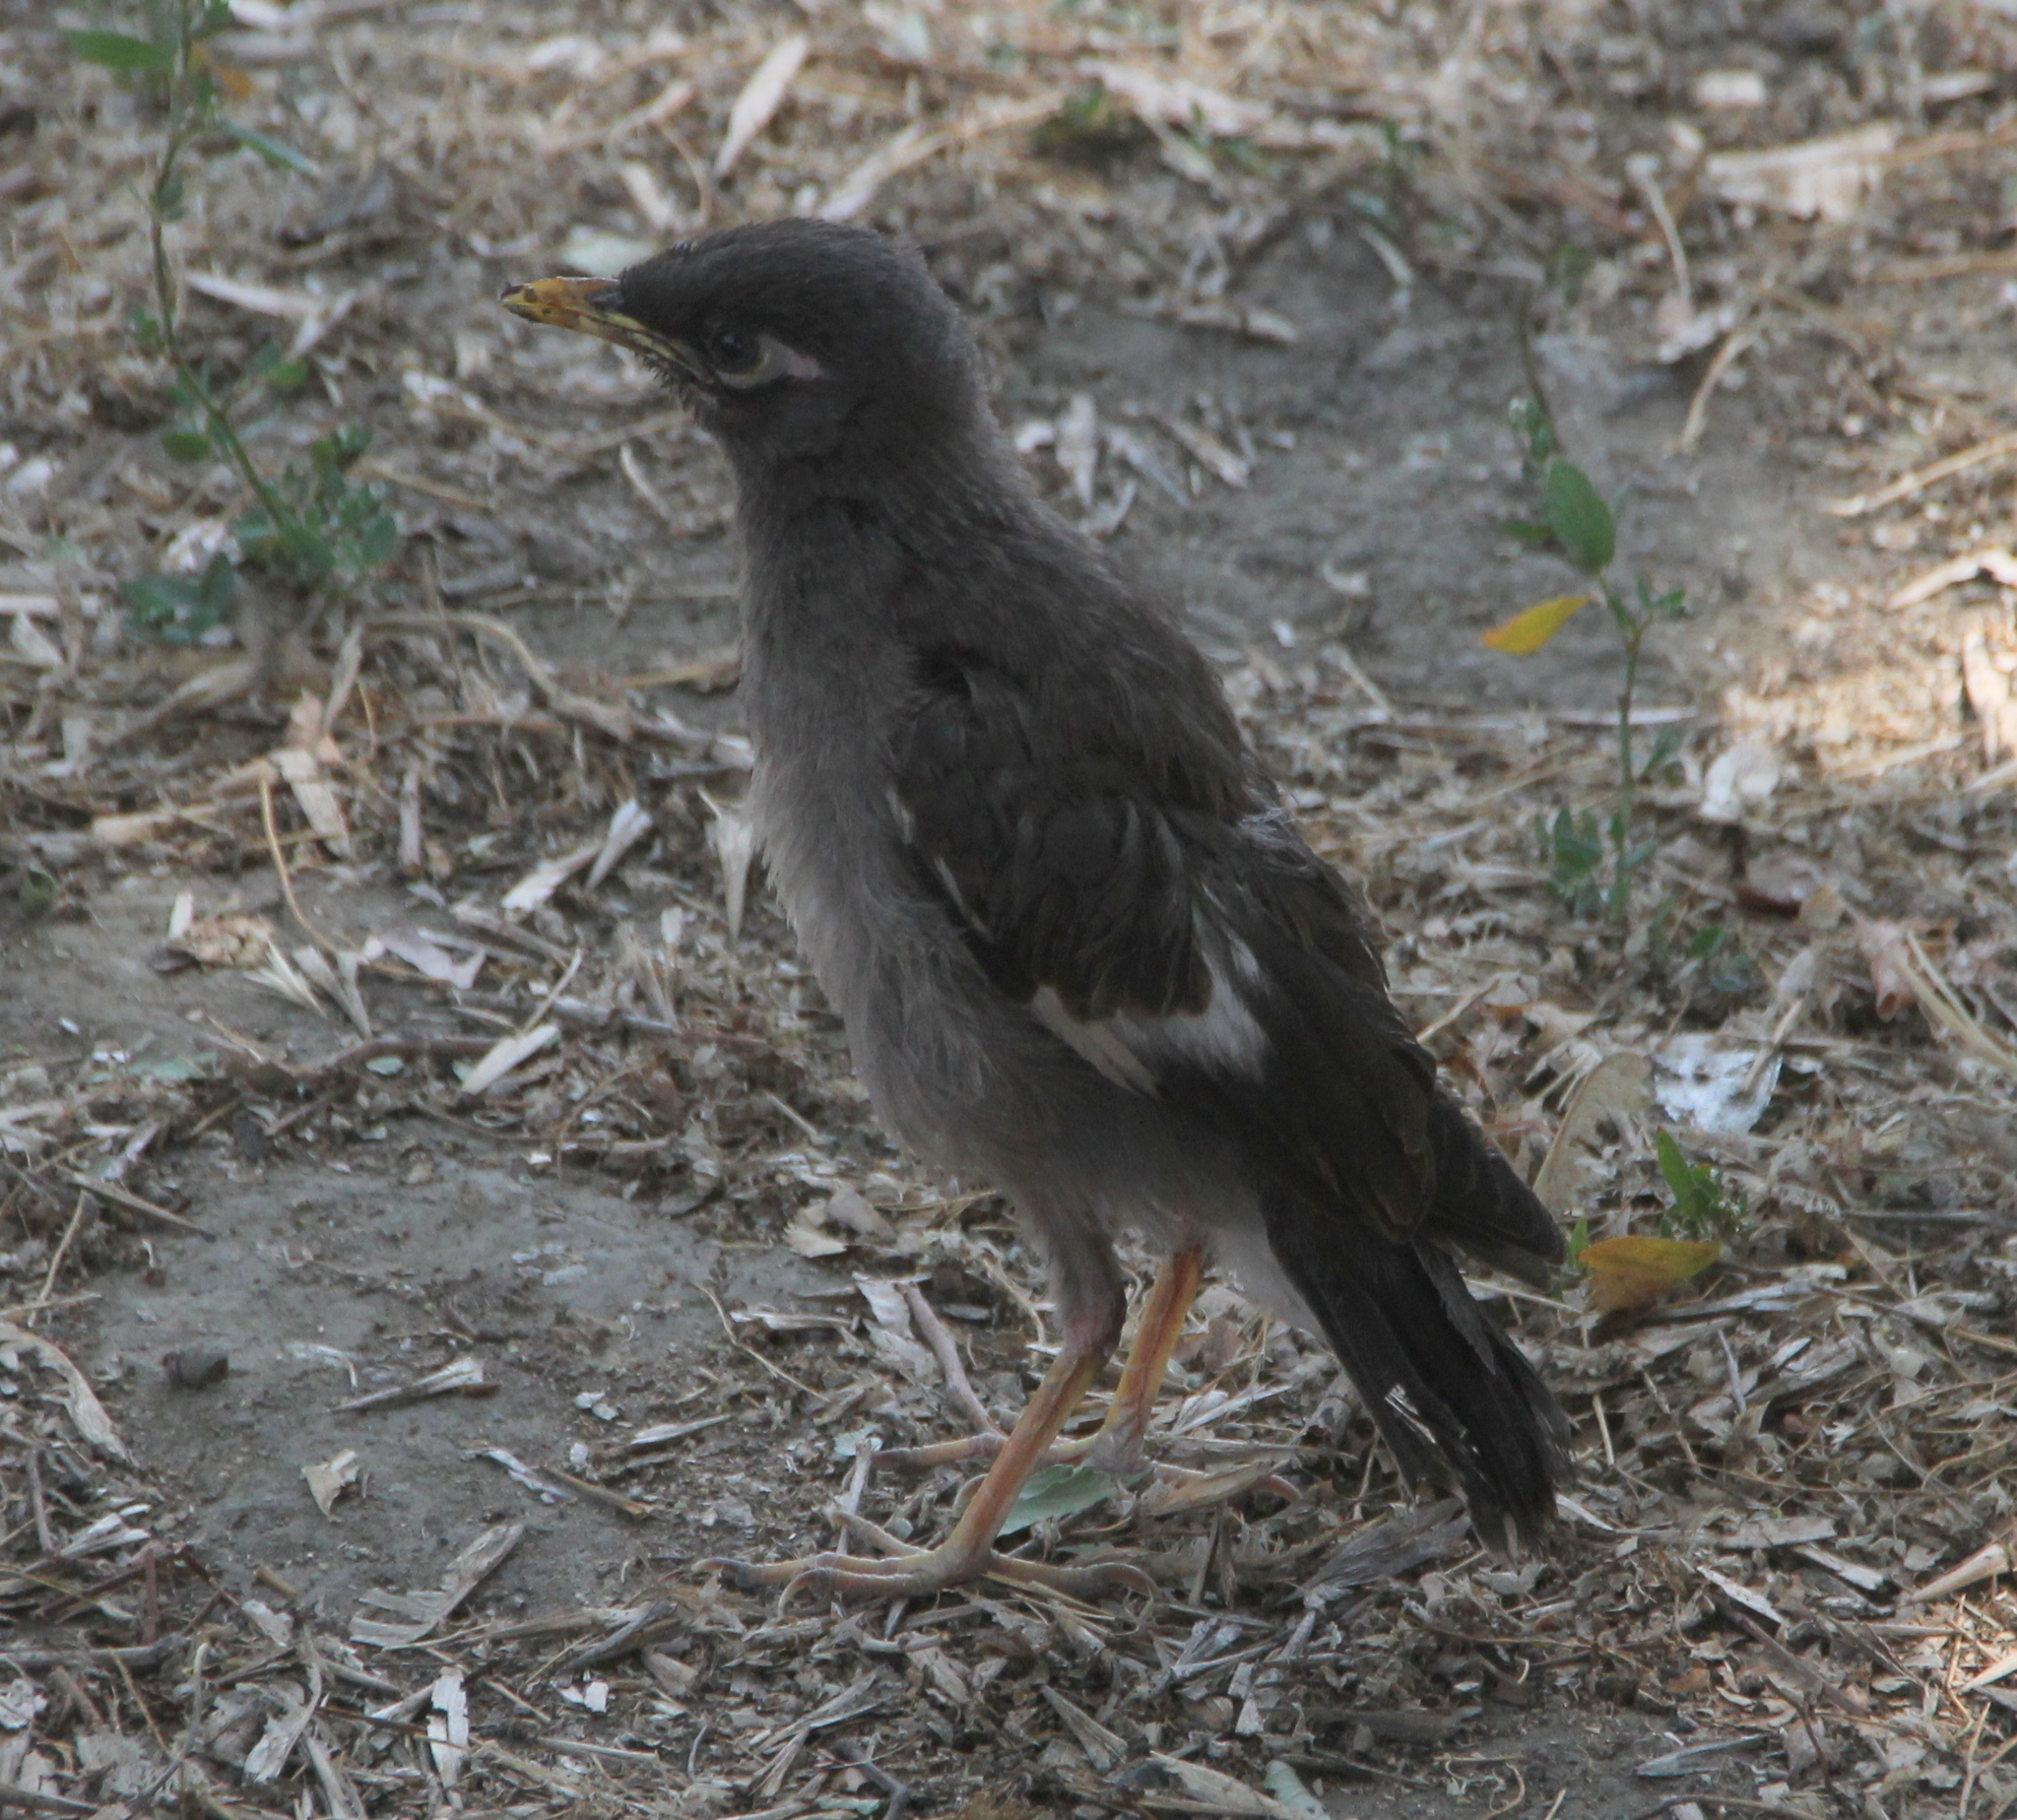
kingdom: Animalia
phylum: Chordata
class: Aves
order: Passeriformes
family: Sturnidae
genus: Acridotheres
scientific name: Acridotheres tristis
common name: Common myna
